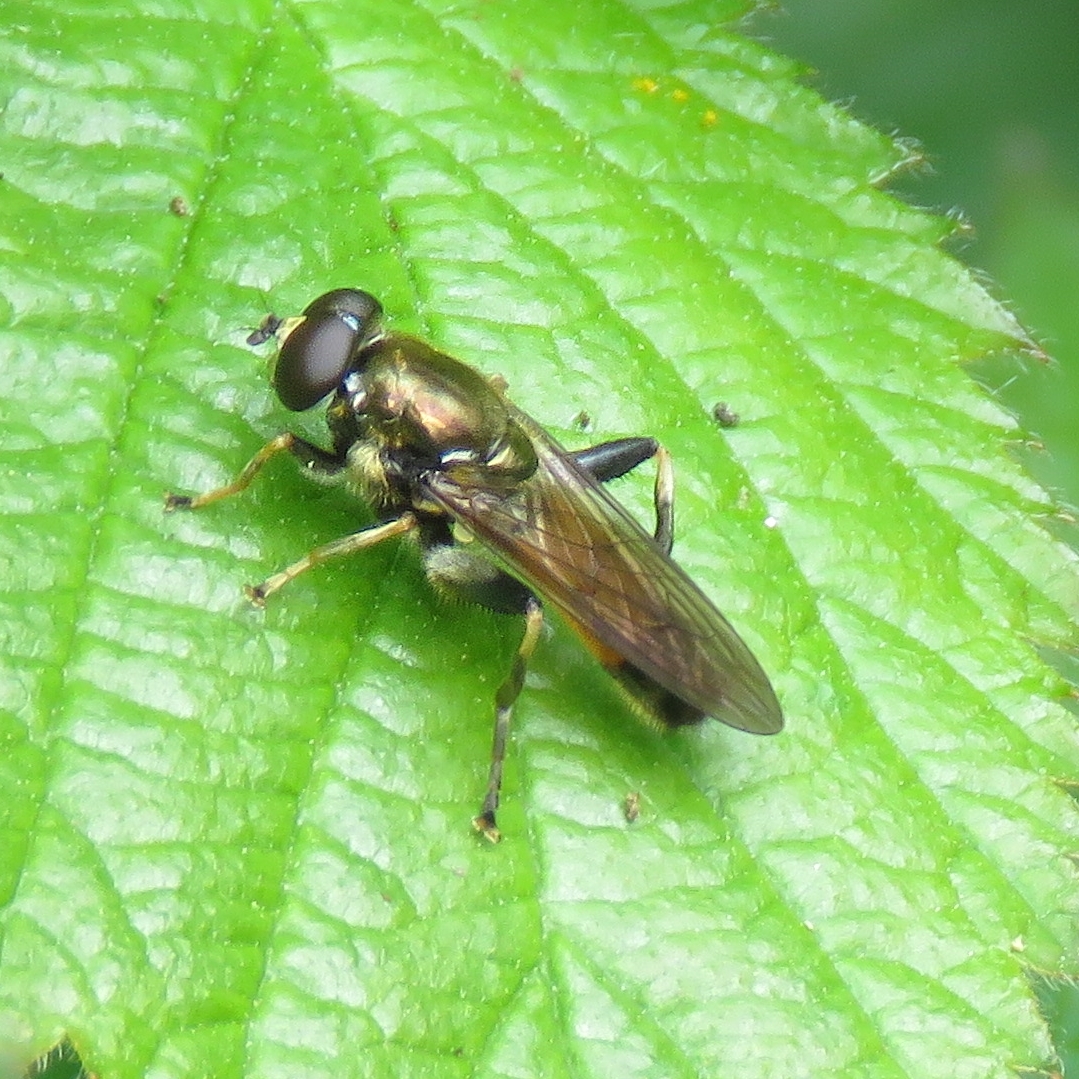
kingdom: Animalia
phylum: Arthropoda
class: Insecta
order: Diptera
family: Syrphidae
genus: Xylota
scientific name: Xylota segnis
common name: Brown-toed forest fly
